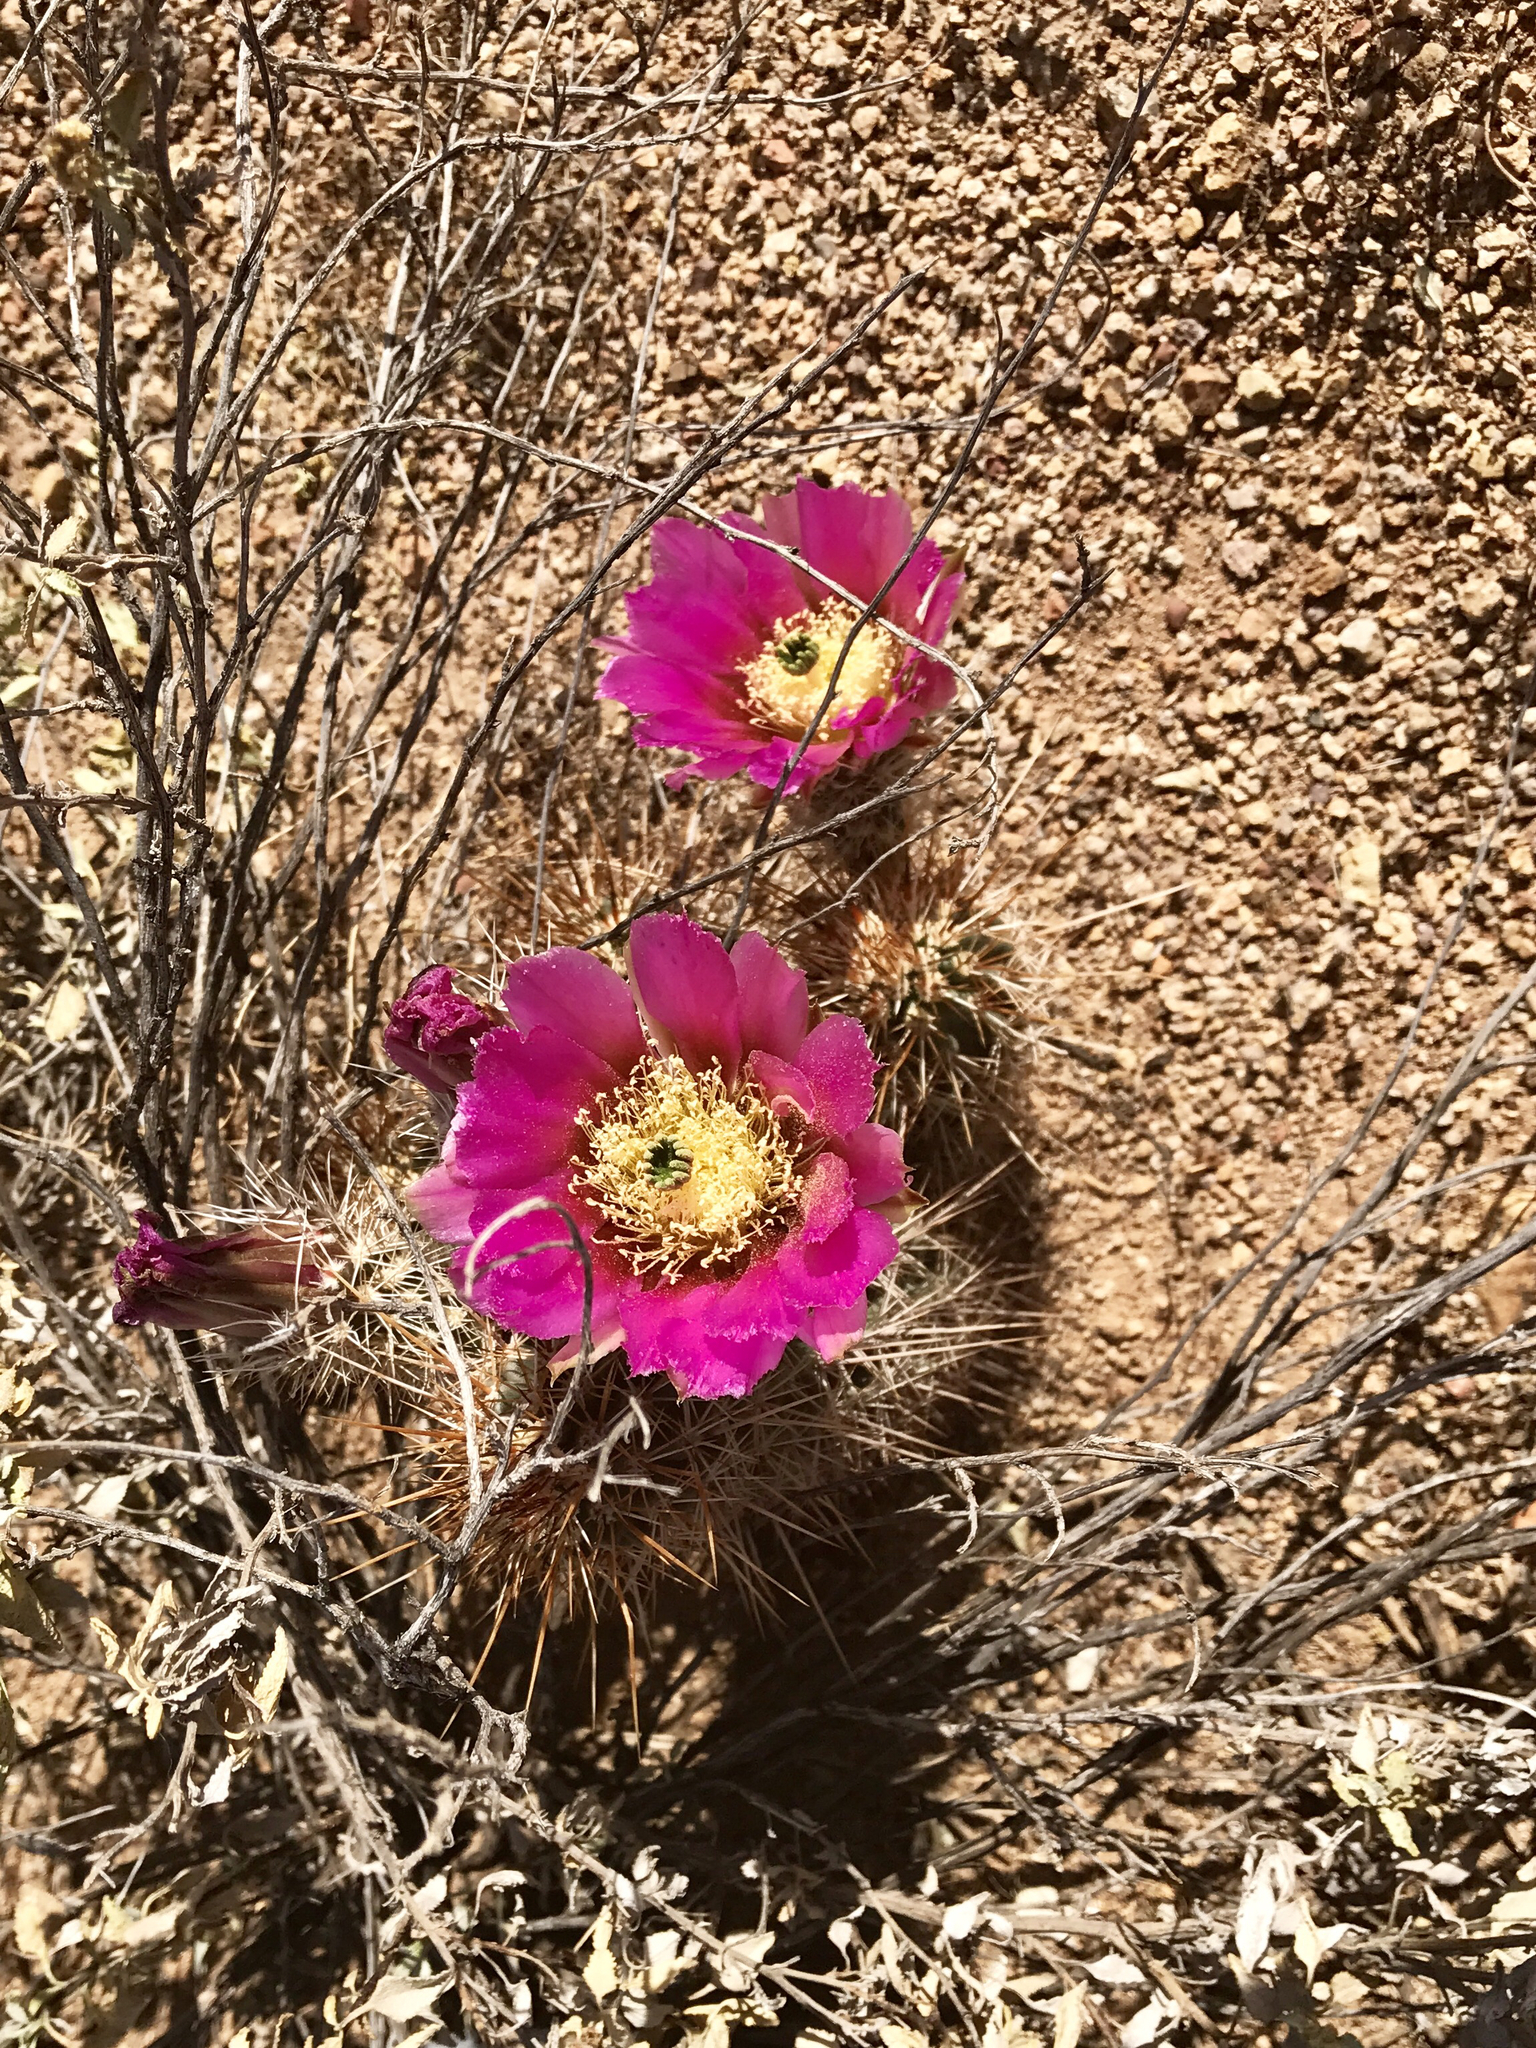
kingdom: Plantae
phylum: Tracheophyta
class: Magnoliopsida
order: Caryophyllales
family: Cactaceae
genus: Echinocereus
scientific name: Echinocereus fasciculatus
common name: Bundle hedgehog
